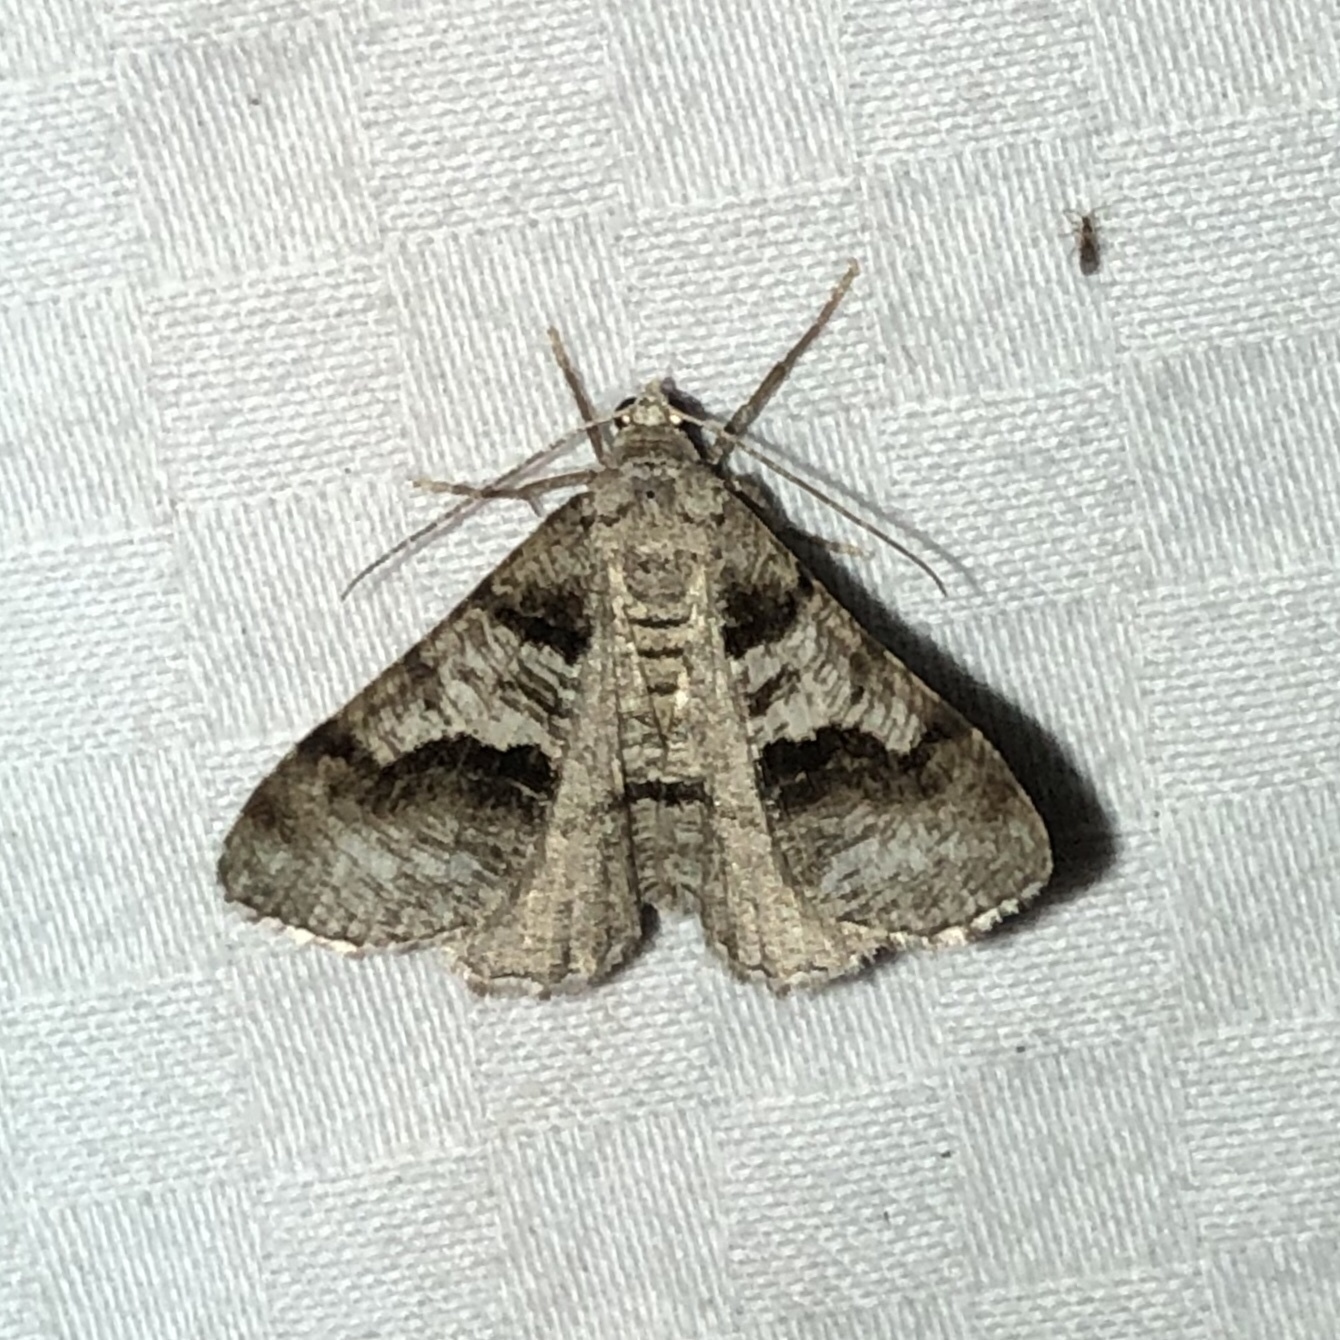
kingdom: Animalia
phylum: Arthropoda
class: Insecta
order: Lepidoptera
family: Geometridae
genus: Digrammia
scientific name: Digrammia continuata
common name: Curve-lined angle
